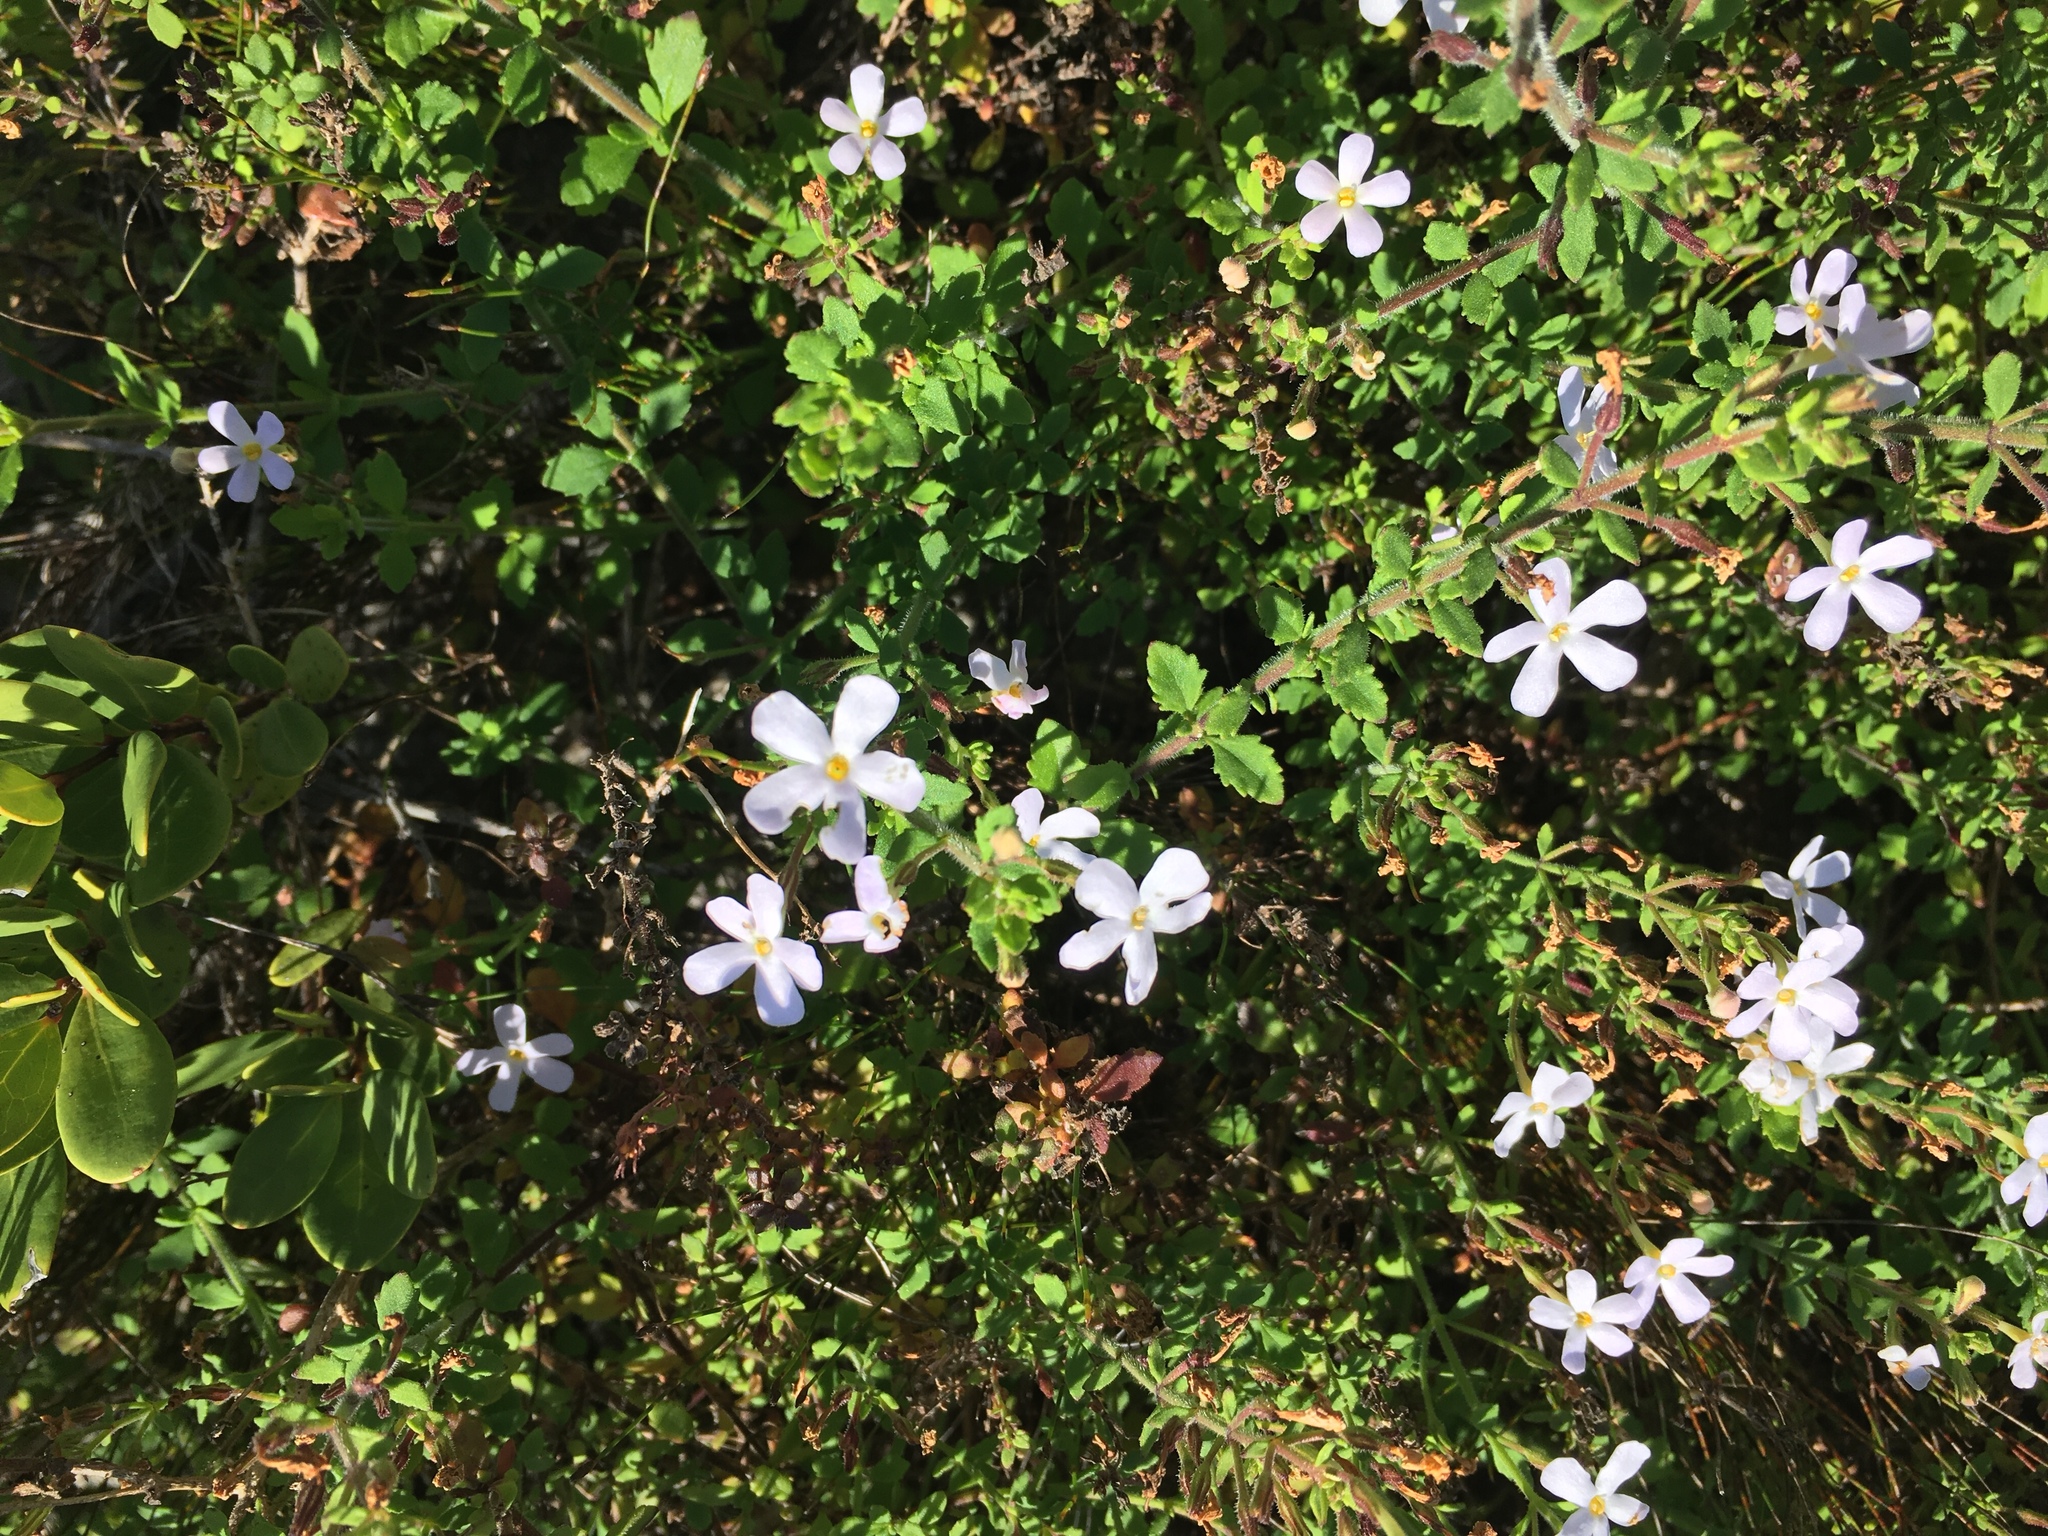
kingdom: Plantae
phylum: Tracheophyta
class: Magnoliopsida
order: Lamiales
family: Scrophulariaceae
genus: Chaenostoma
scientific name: Chaenostoma hispidum
